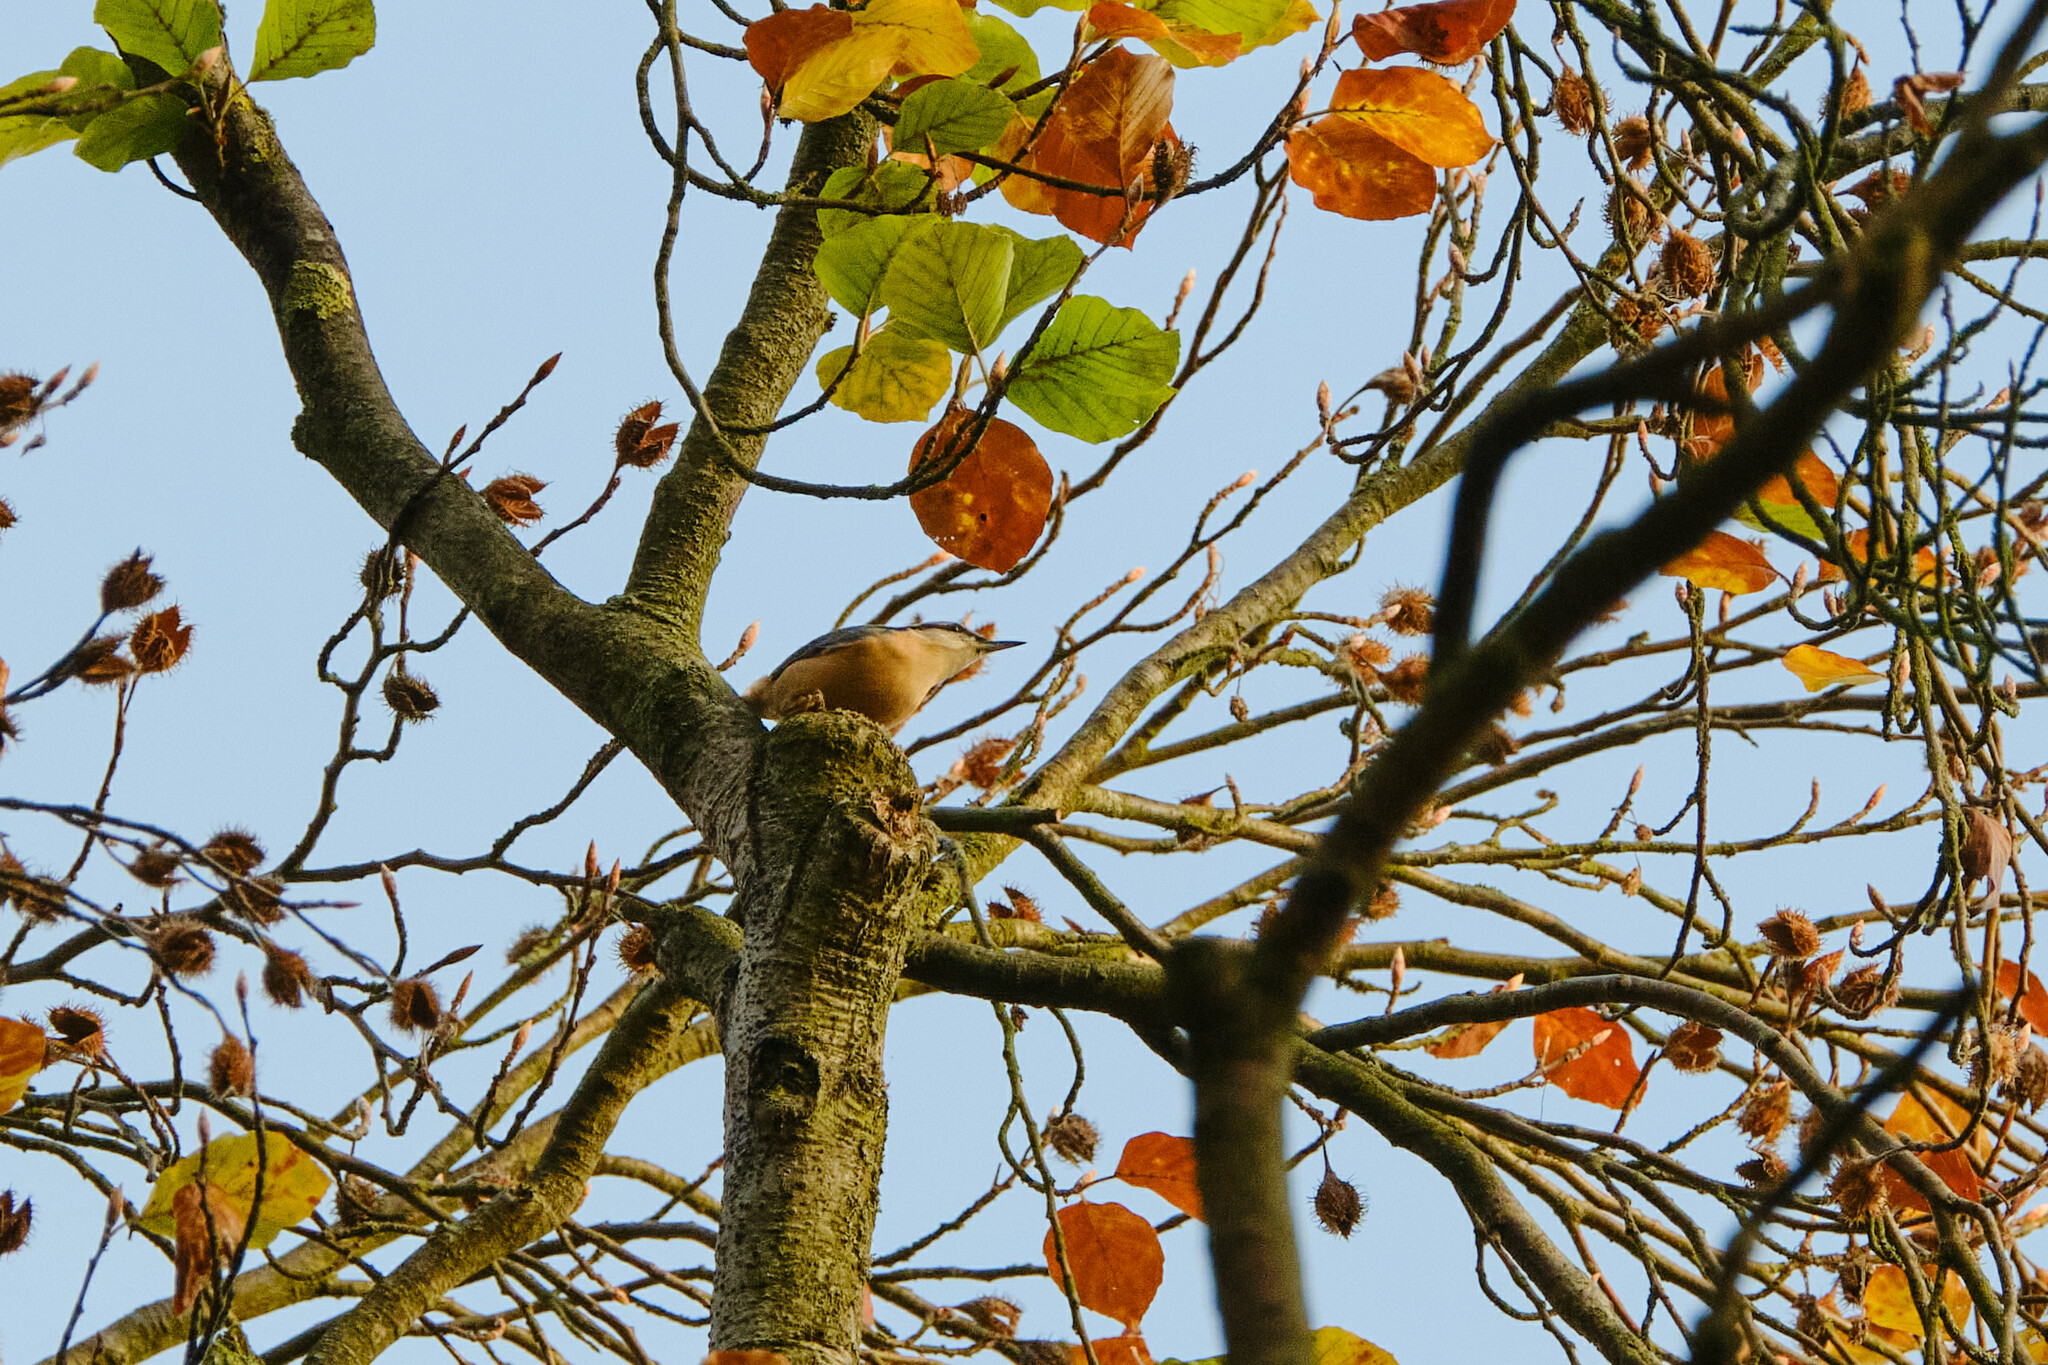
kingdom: Animalia
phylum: Chordata
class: Aves
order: Passeriformes
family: Sittidae
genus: Sitta
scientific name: Sitta europaea
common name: Eurasian nuthatch
